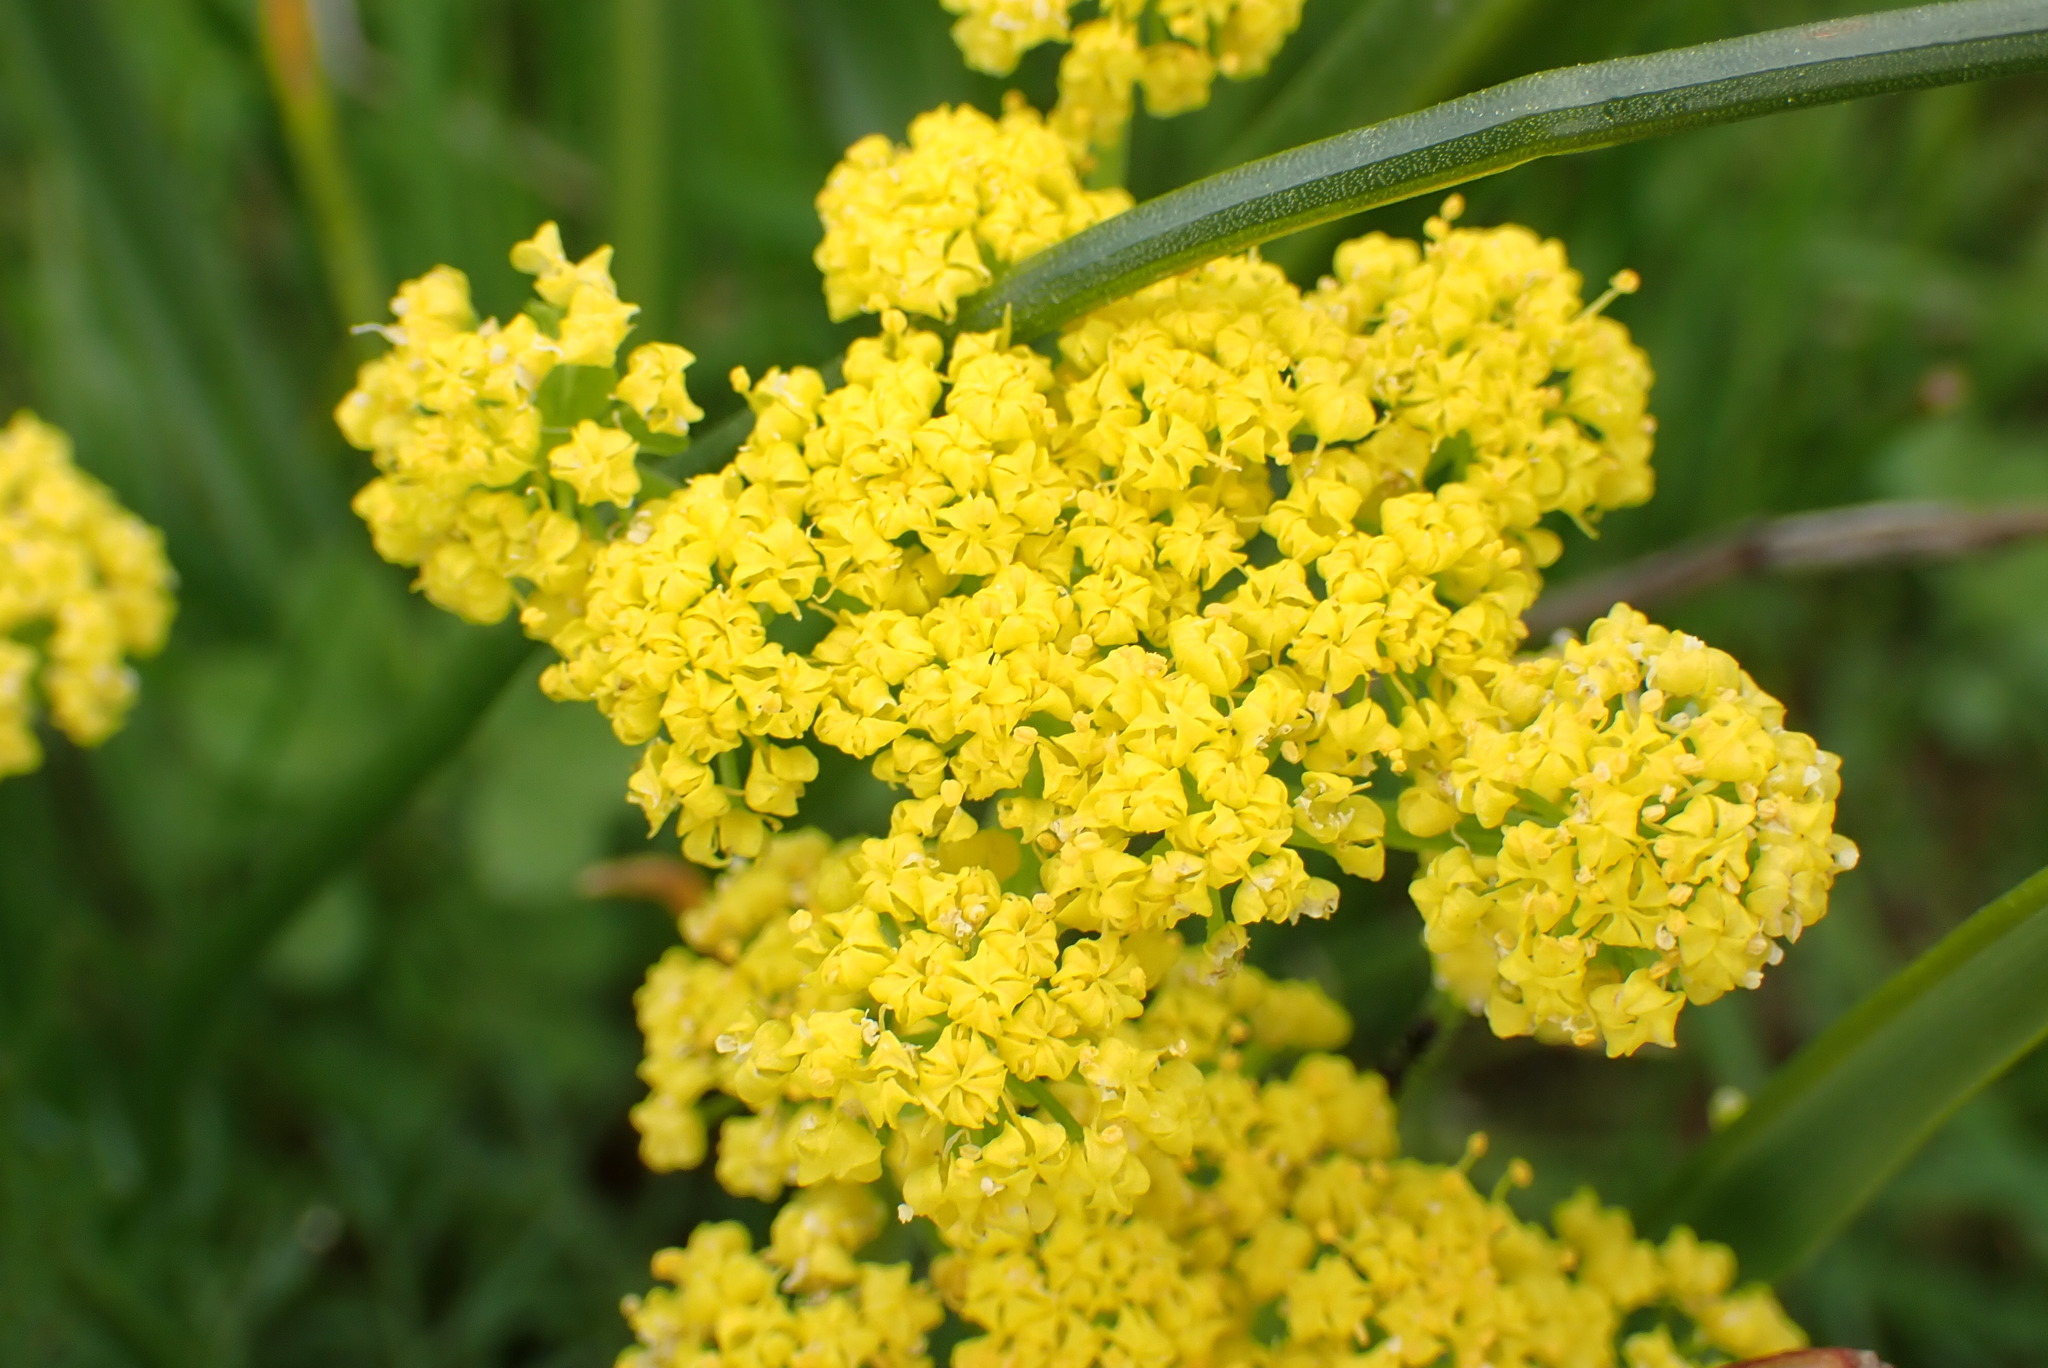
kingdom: Plantae
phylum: Tracheophyta
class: Magnoliopsida
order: Apiales
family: Apiaceae
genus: Lomatium
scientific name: Lomatium utriculatum
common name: Fine-leaf desert-parsley
